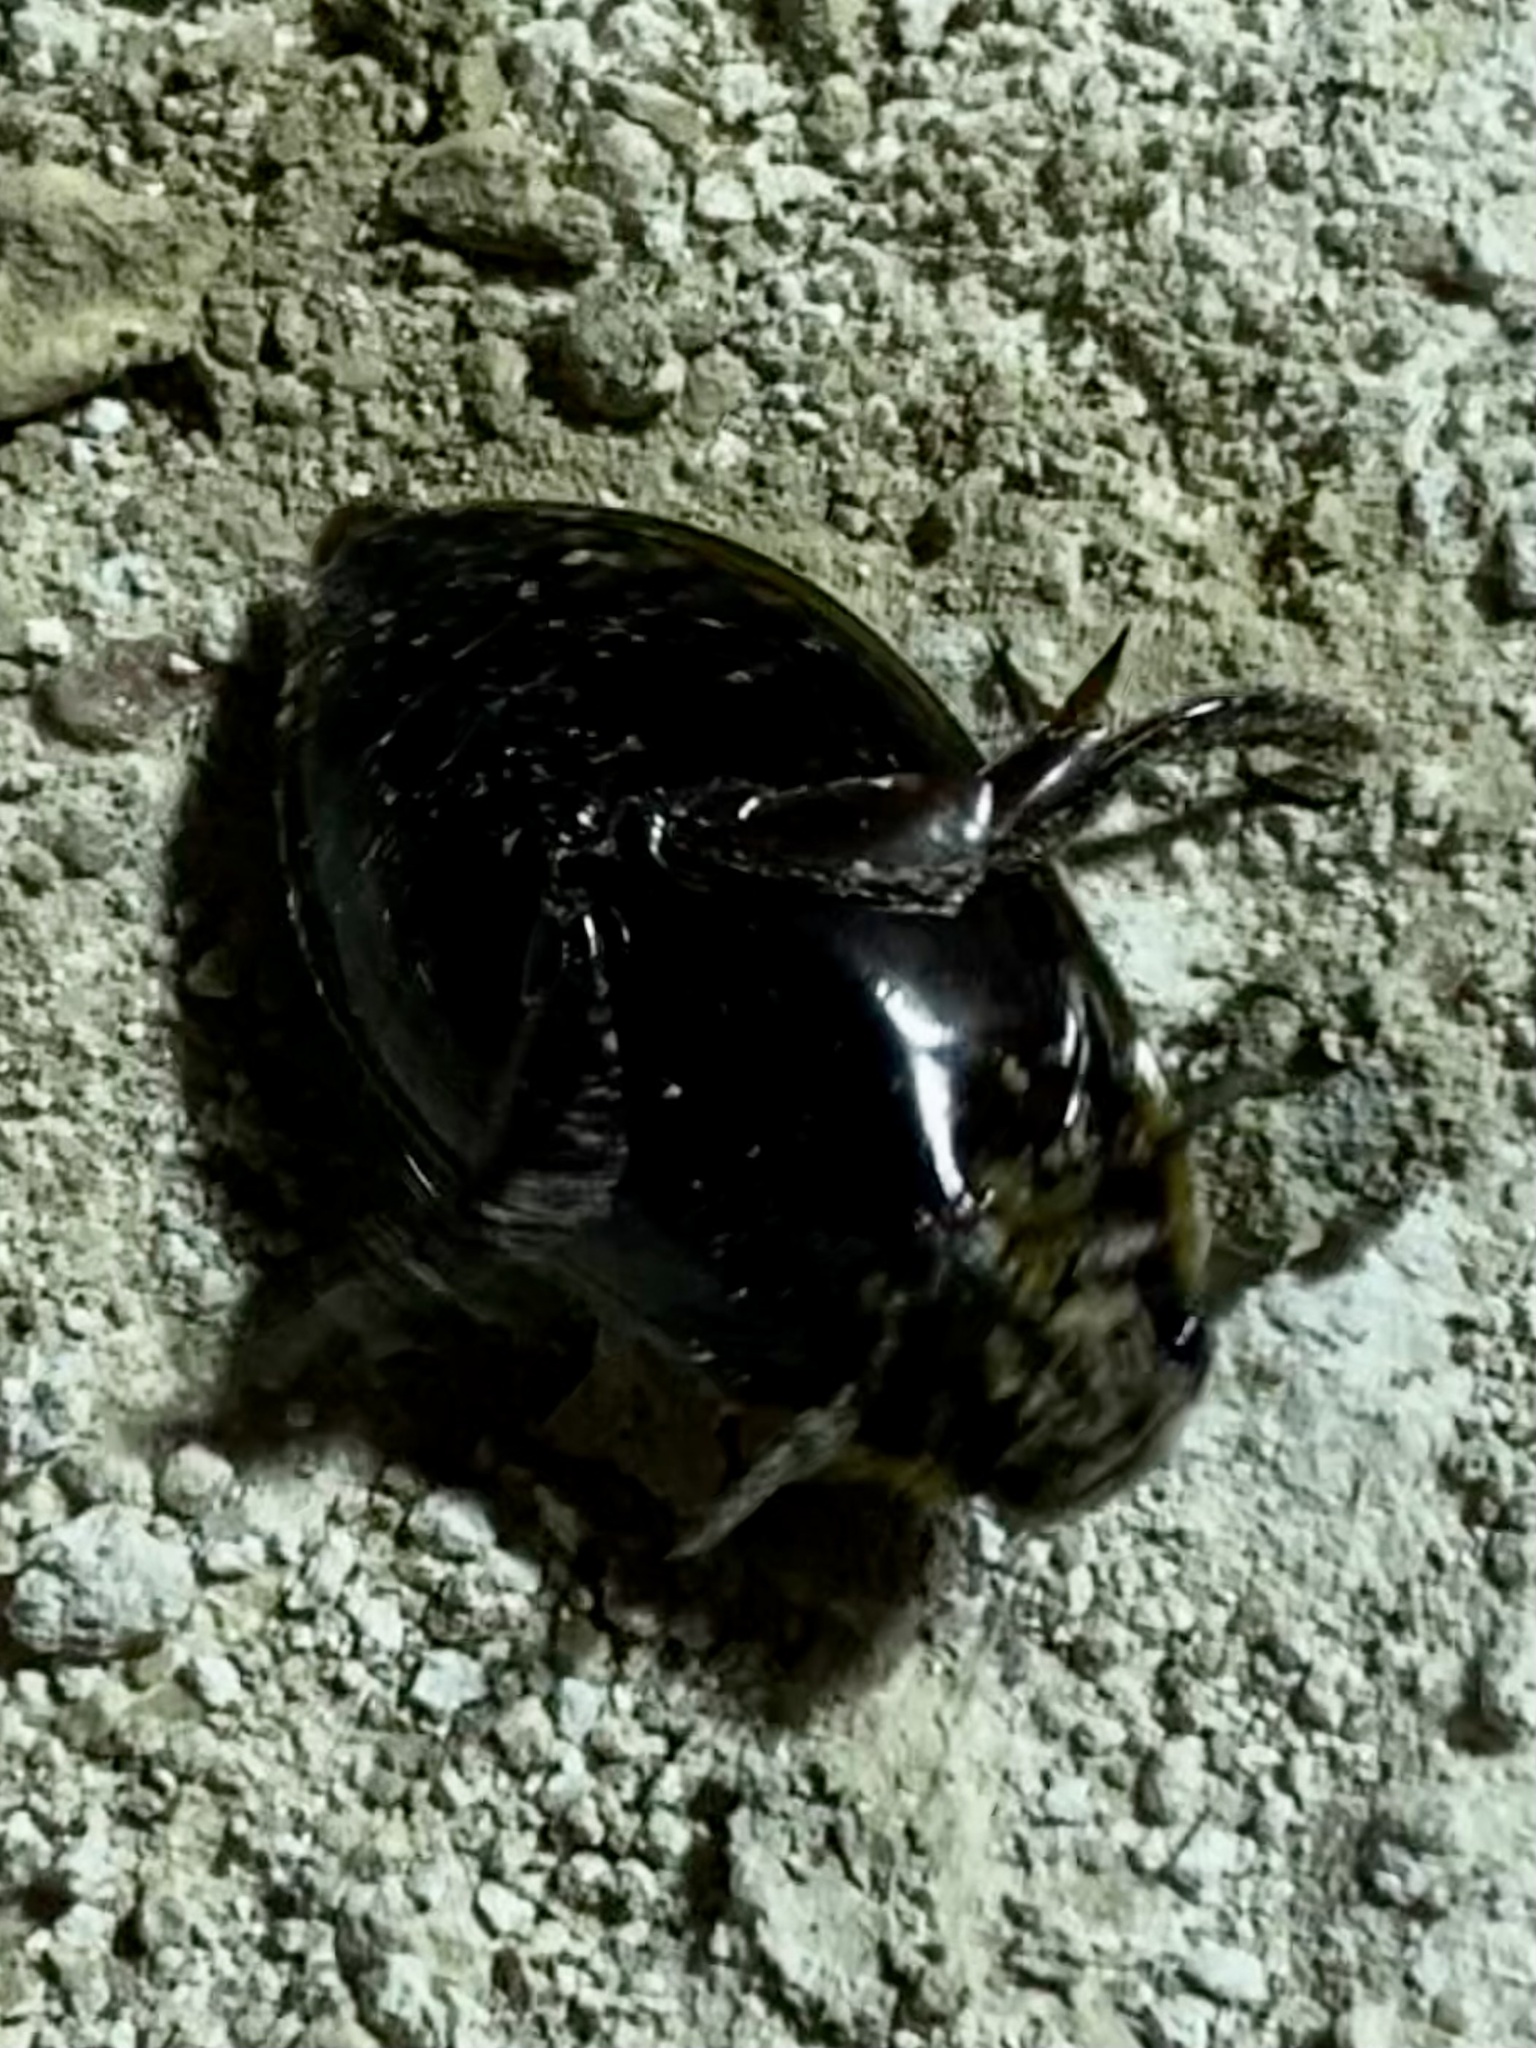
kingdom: Animalia
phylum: Arthropoda
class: Insecta
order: Coleoptera
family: Dytiscidae
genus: Thermonectus
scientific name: Thermonectus basillaris
